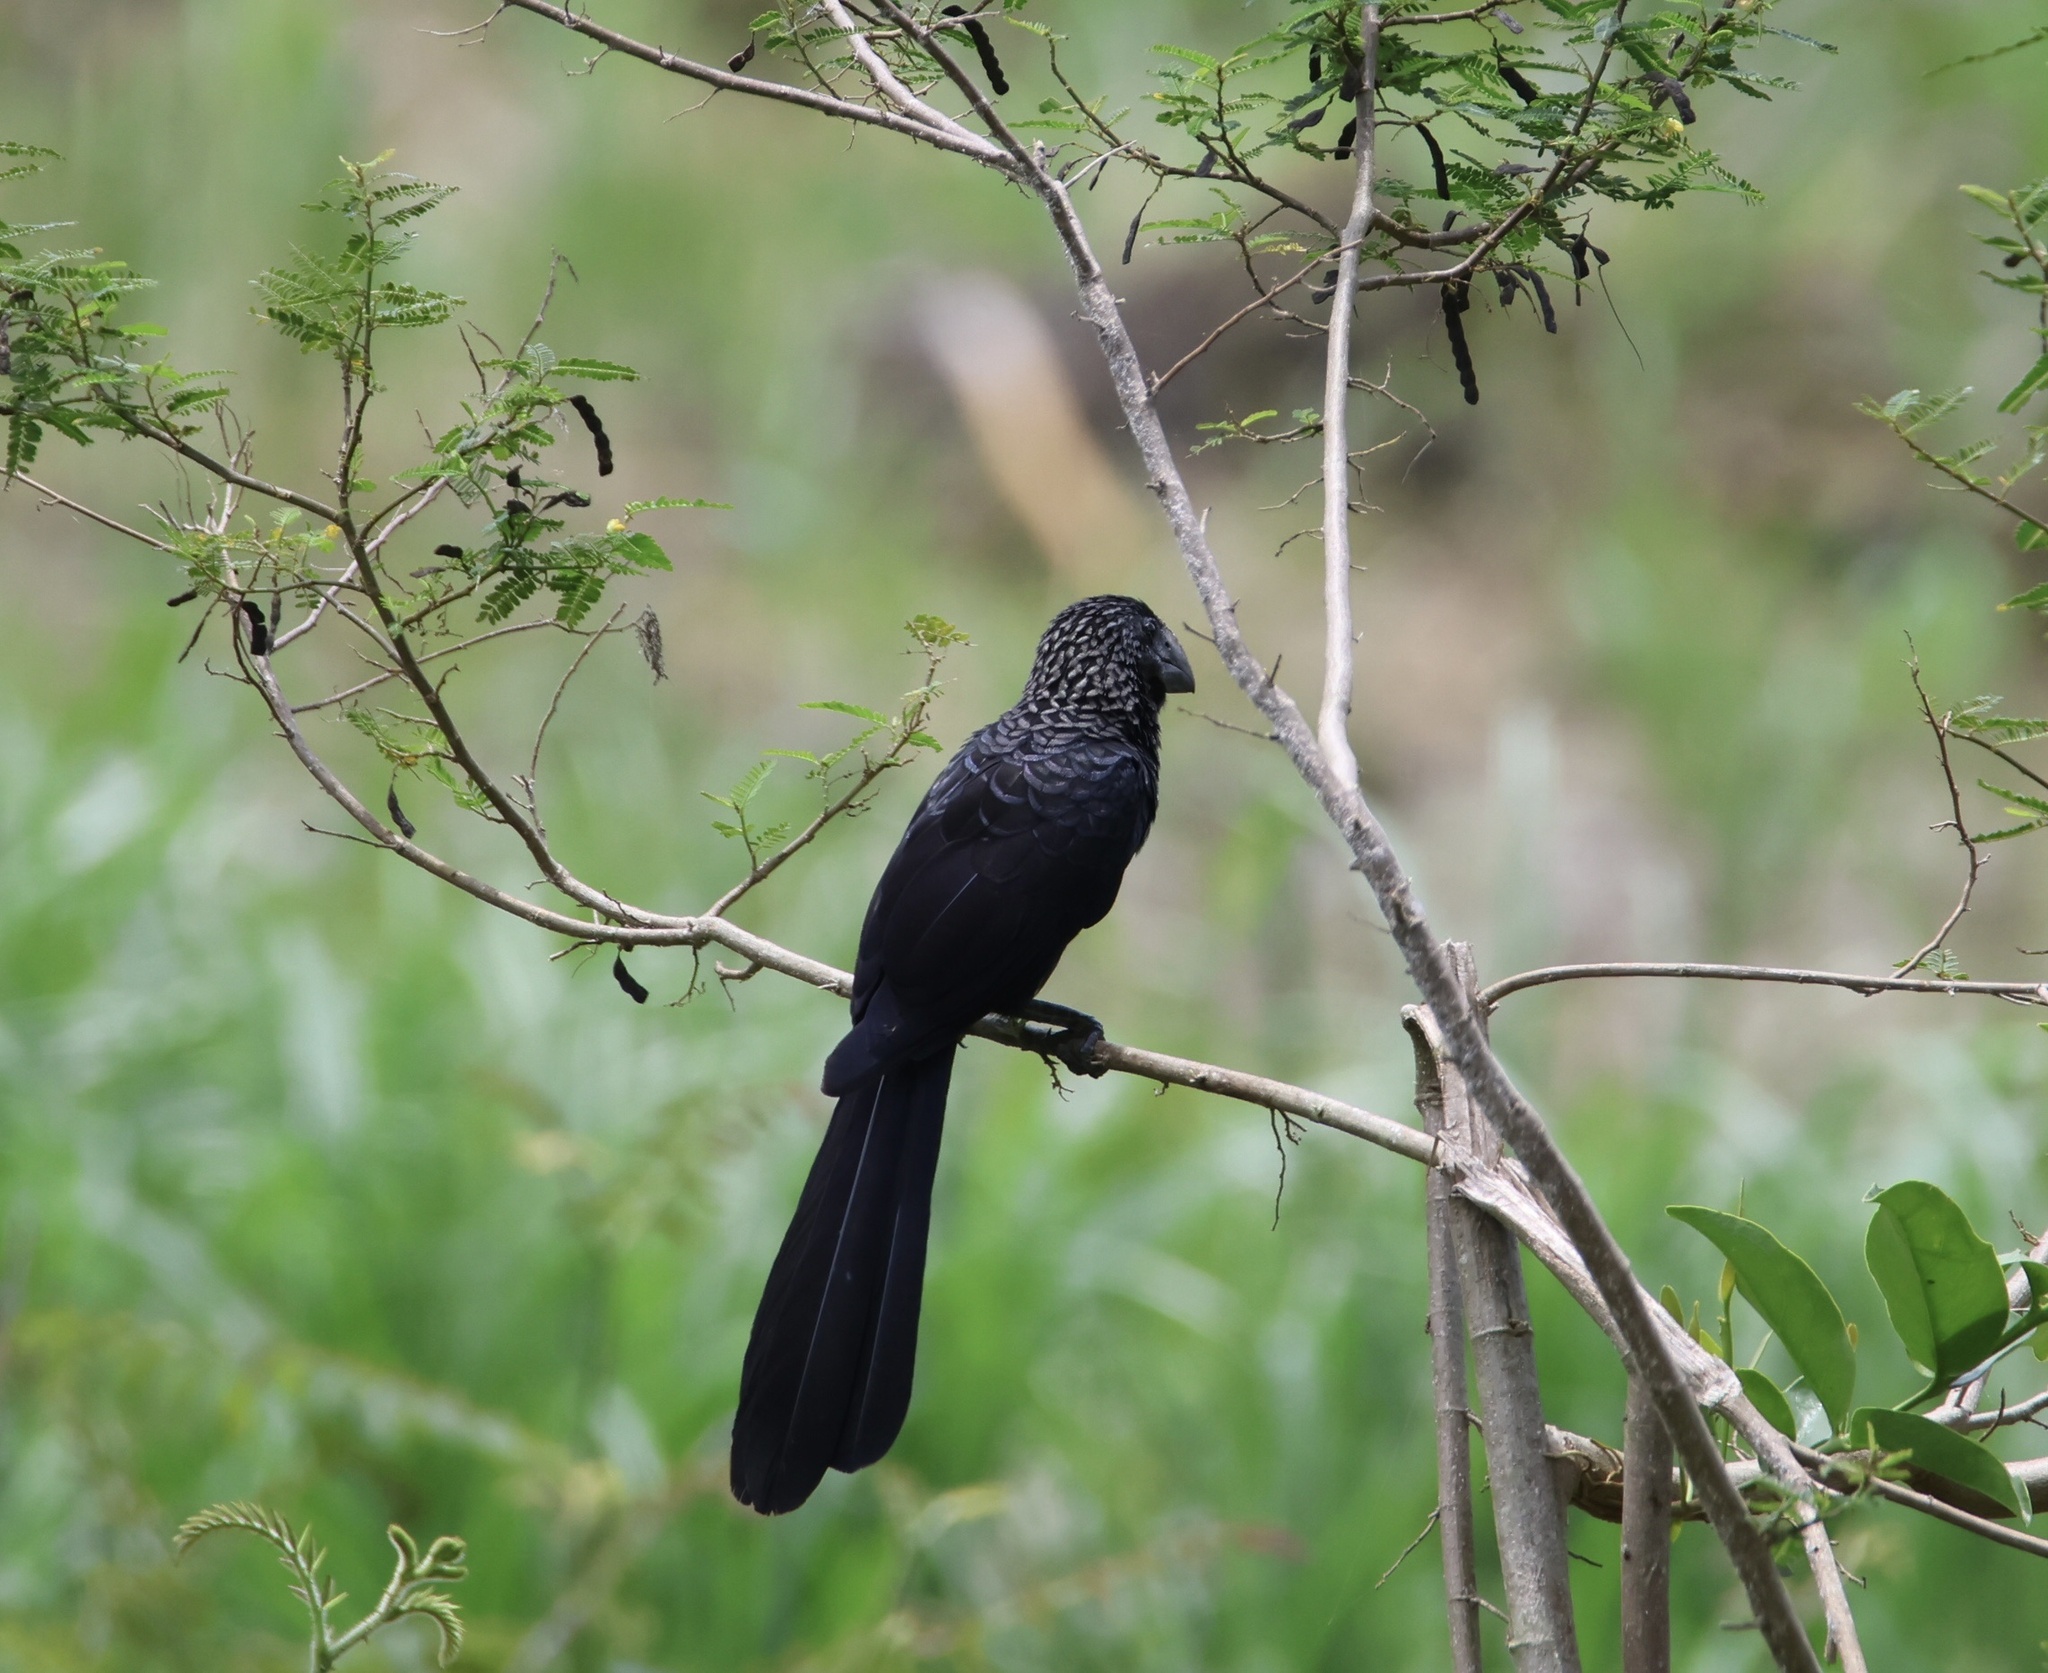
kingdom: Animalia
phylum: Chordata
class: Aves
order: Cuculiformes
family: Cuculidae
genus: Crotophaga
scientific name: Crotophaga ani
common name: Smooth-billed ani
